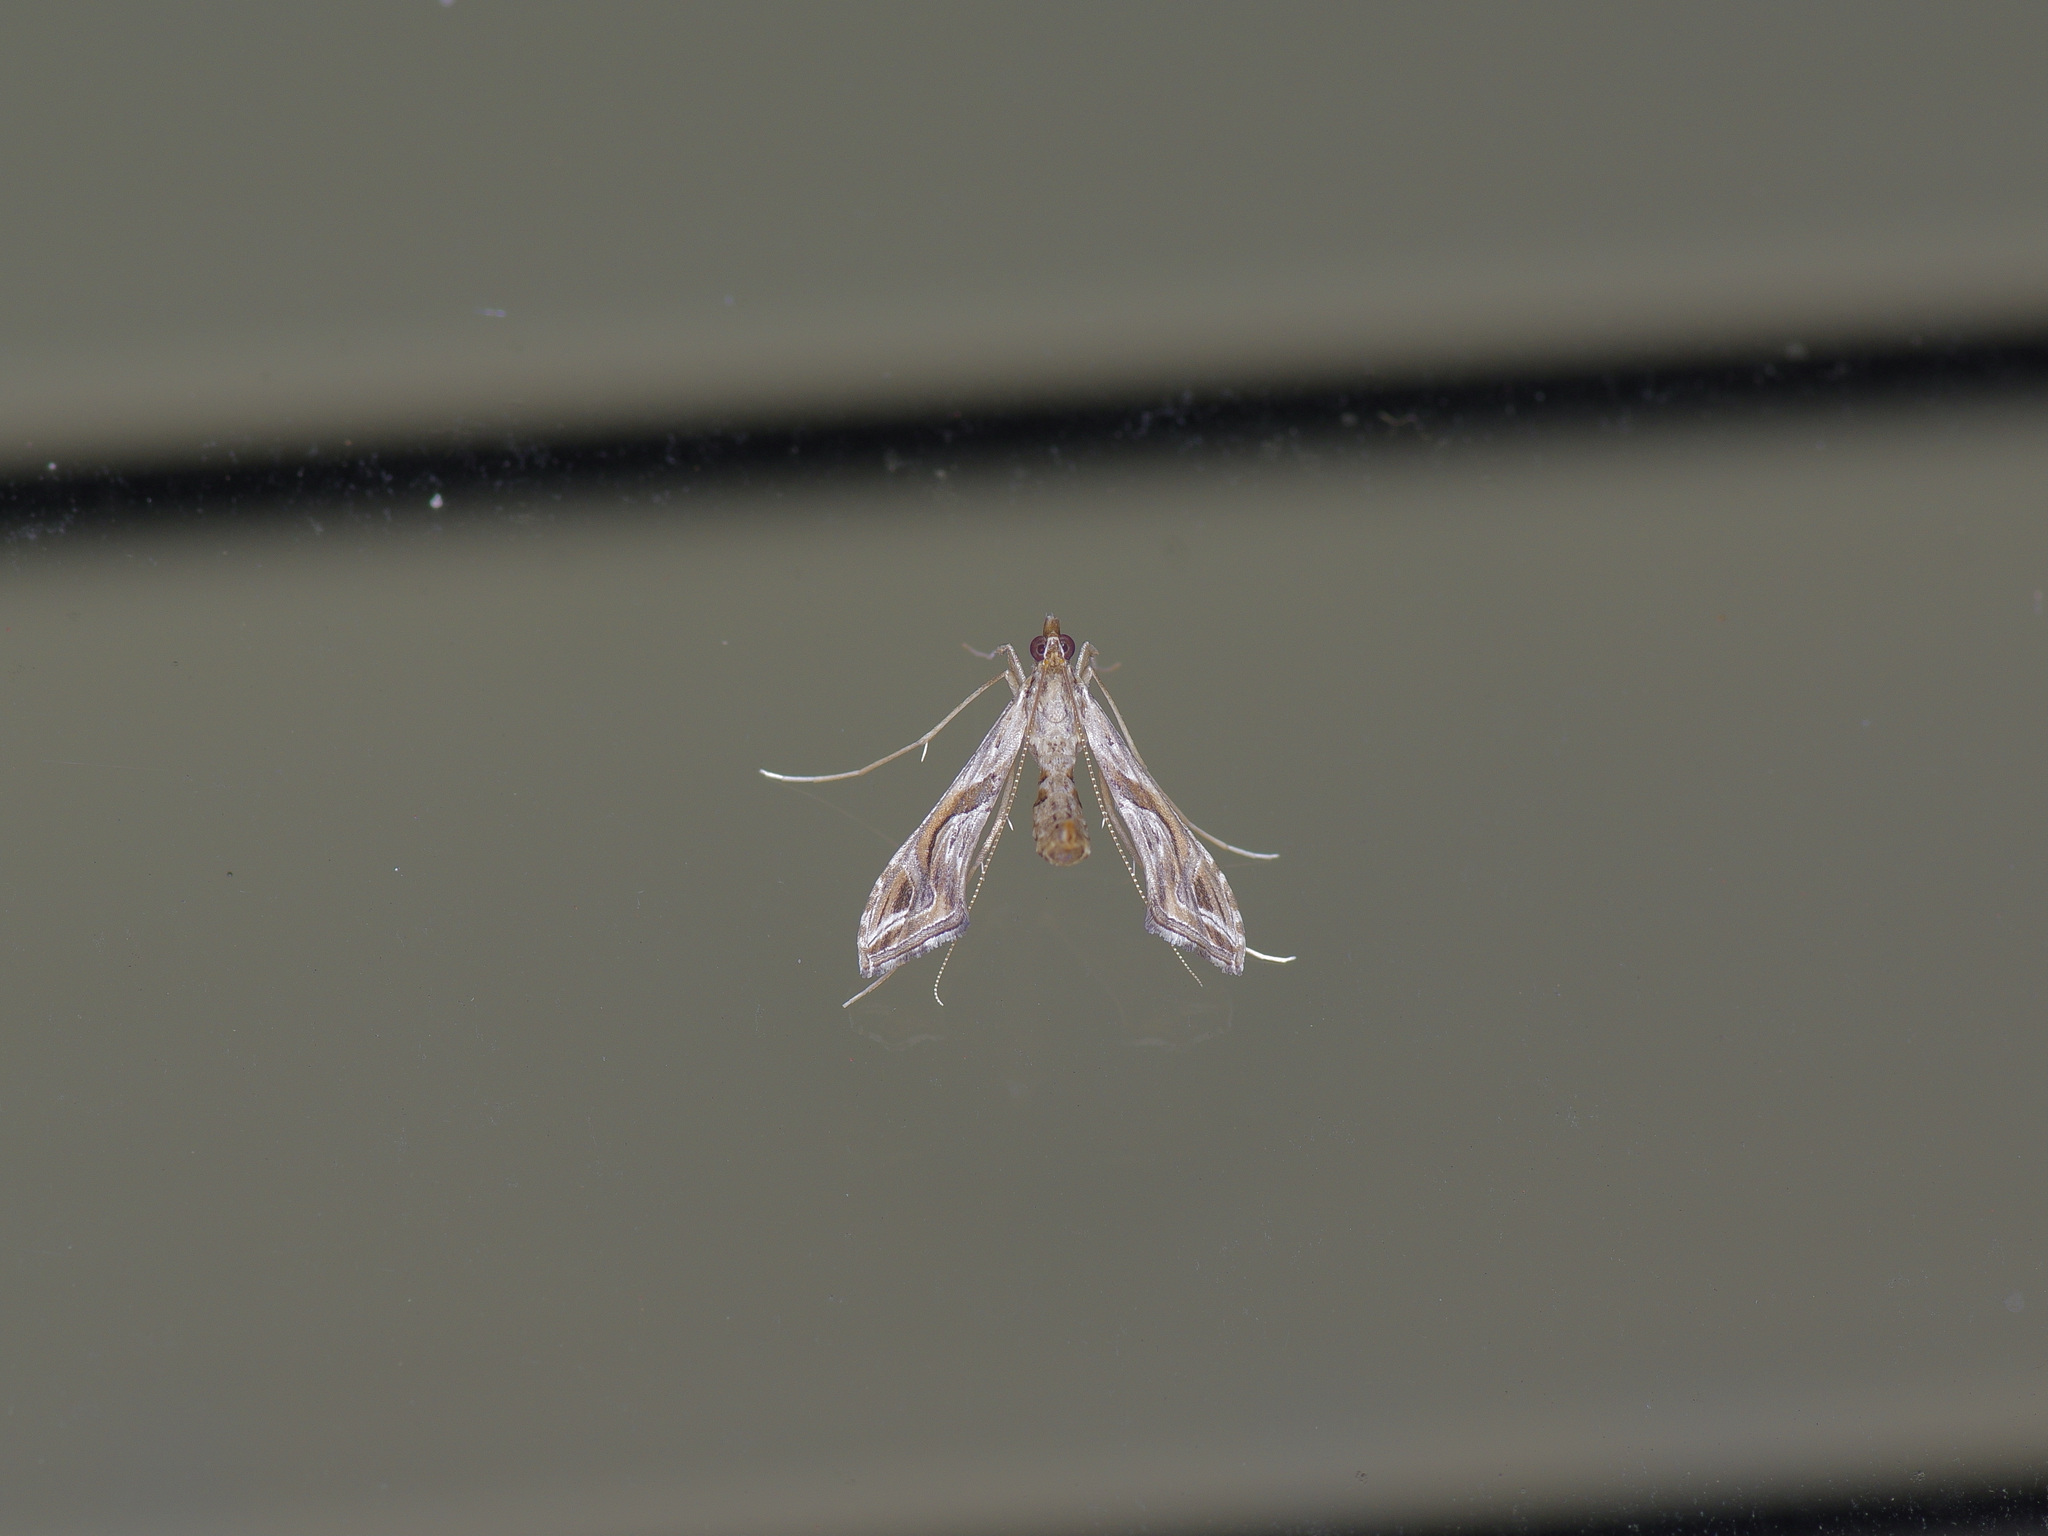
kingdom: Animalia
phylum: Arthropoda
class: Insecta
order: Lepidoptera
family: Crambidae
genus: Lineodes
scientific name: Lineodes integra
